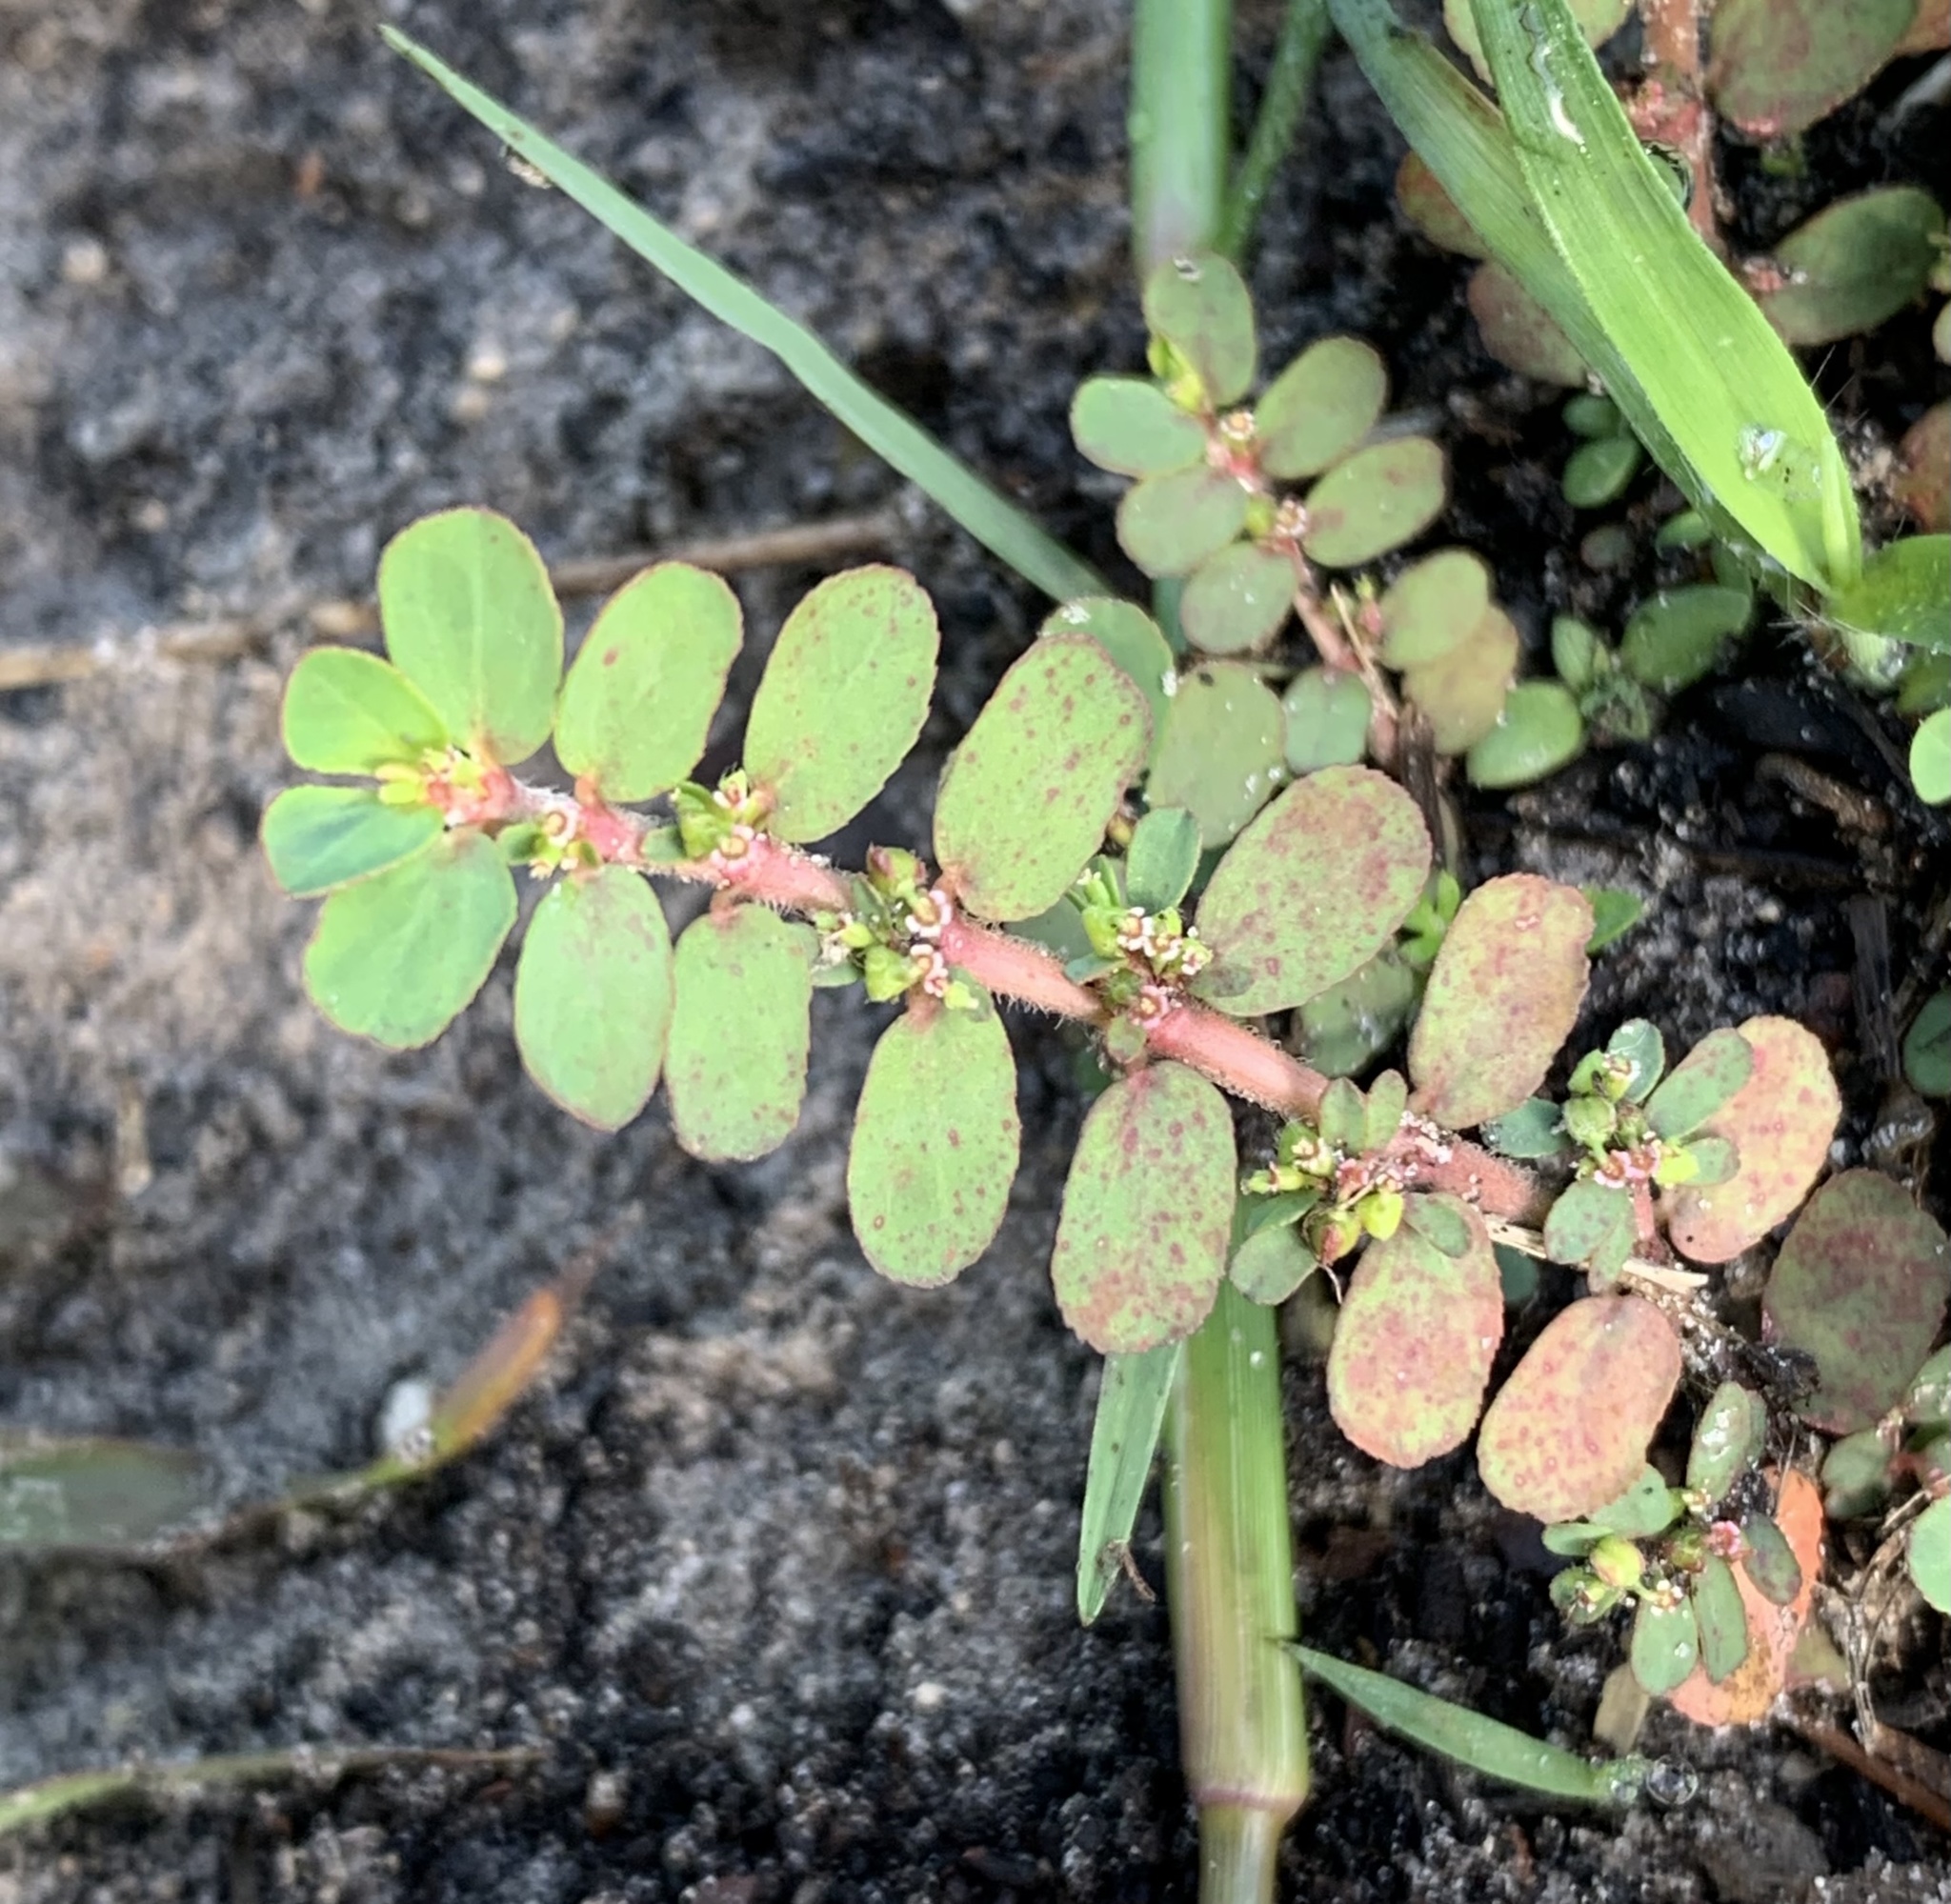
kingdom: Plantae
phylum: Tracheophyta
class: Magnoliopsida
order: Malpighiales
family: Euphorbiaceae
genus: Euphorbia
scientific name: Euphorbia mendezii
